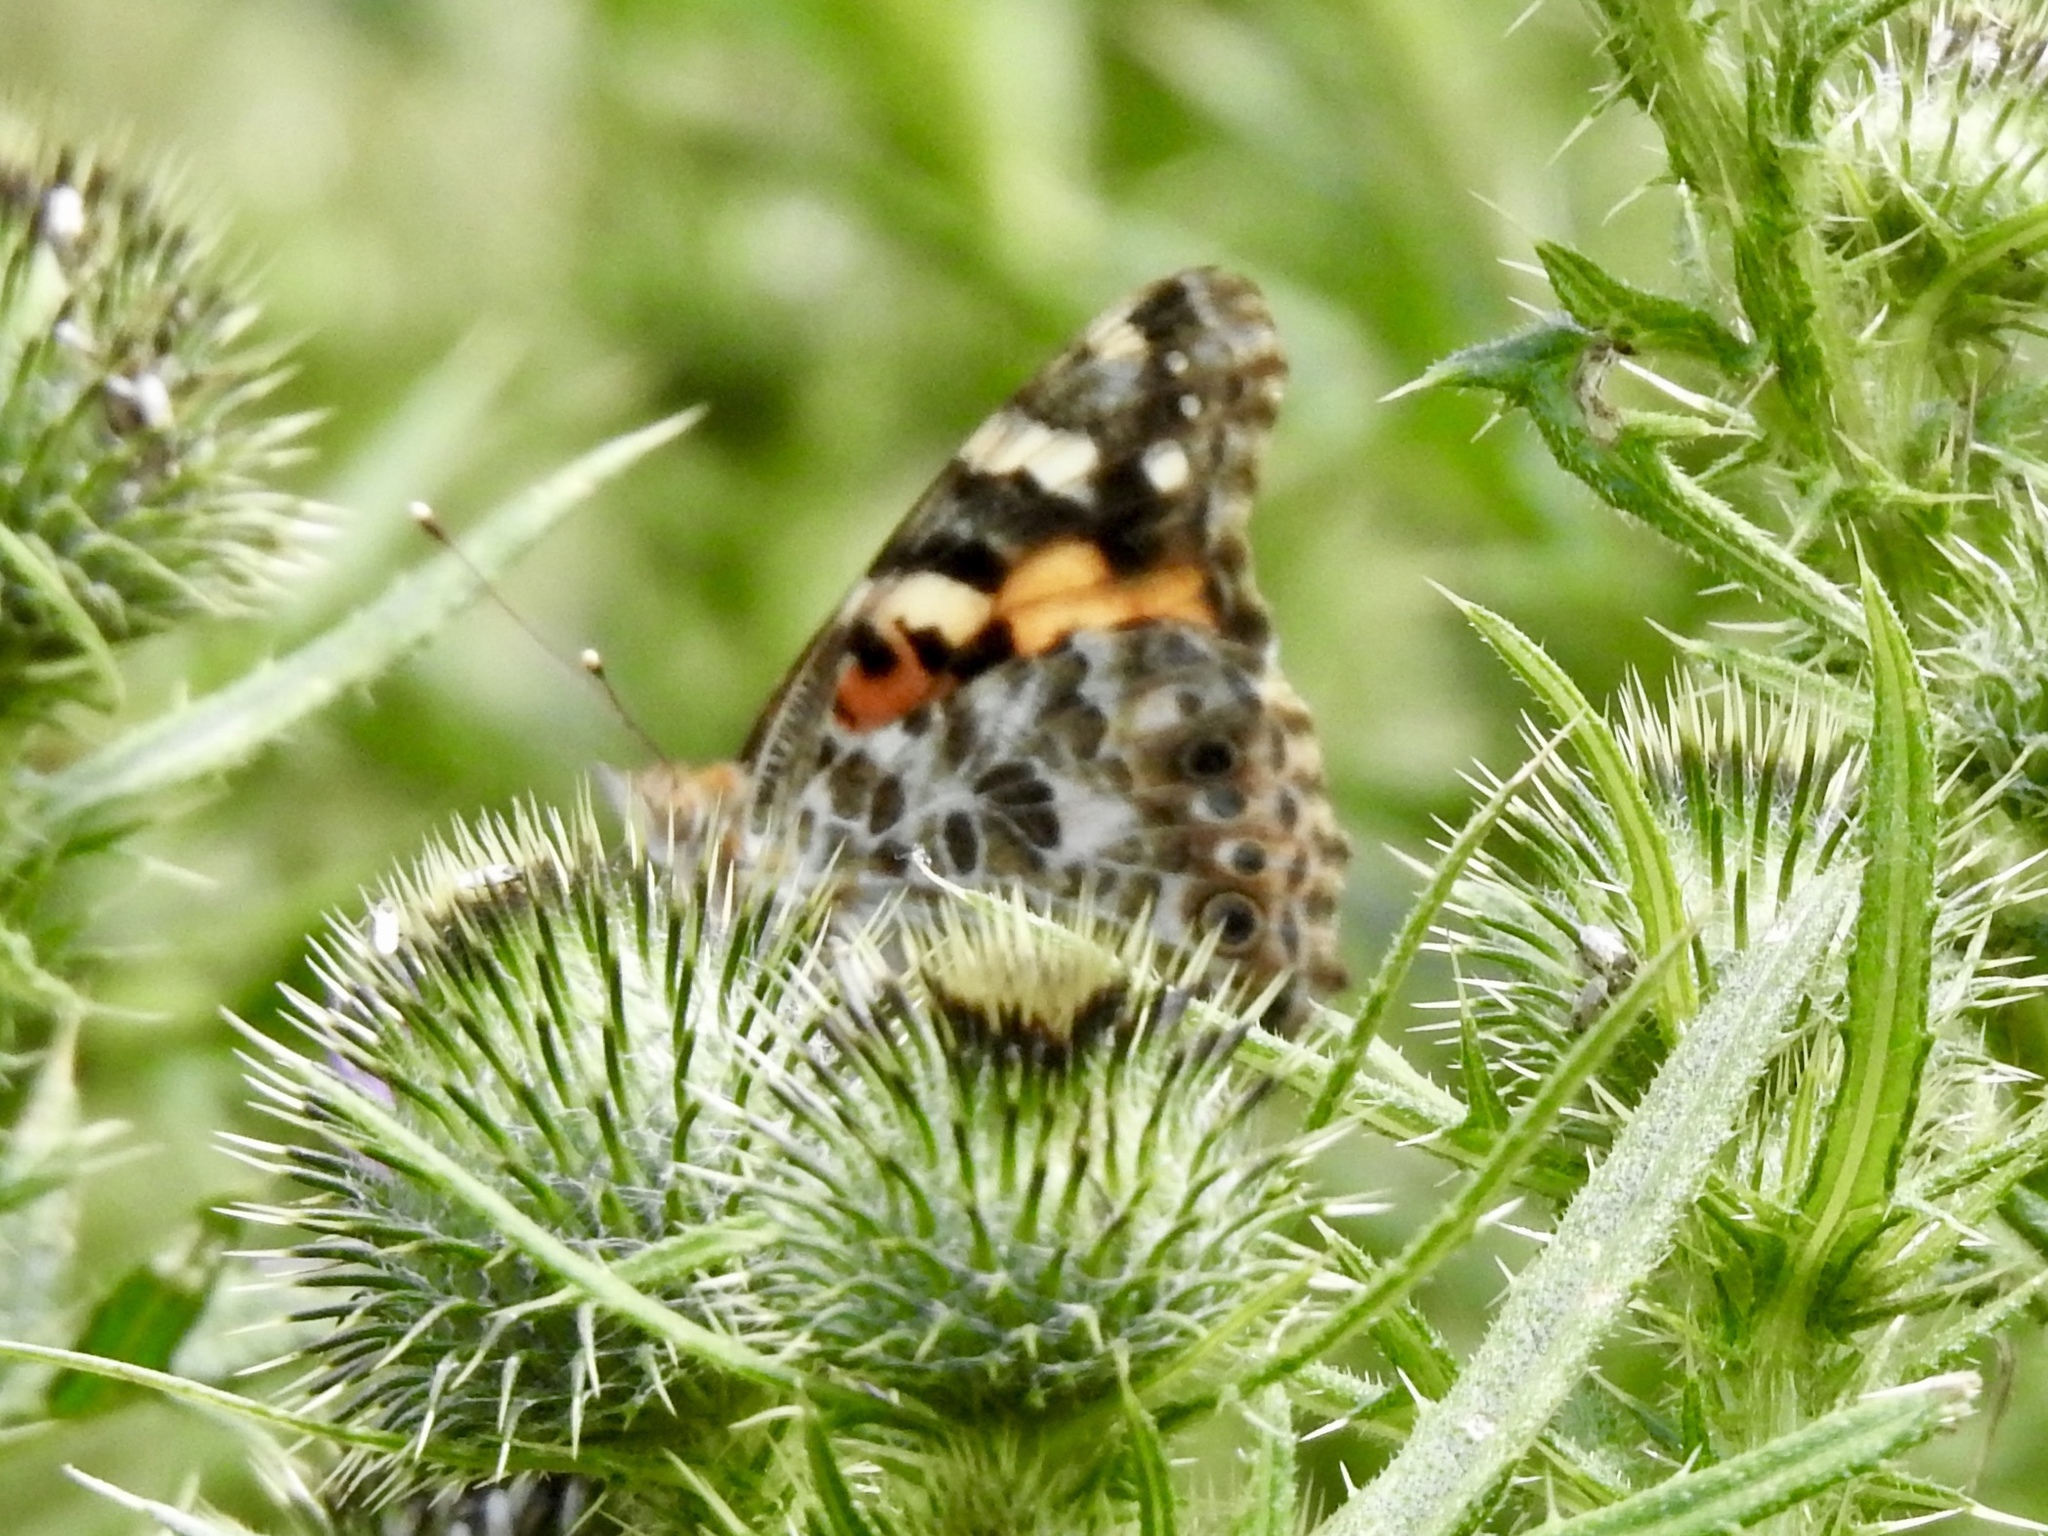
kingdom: Animalia
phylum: Arthropoda
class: Insecta
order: Lepidoptera
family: Nymphalidae
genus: Vanessa
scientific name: Vanessa cardui
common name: Painted lady
